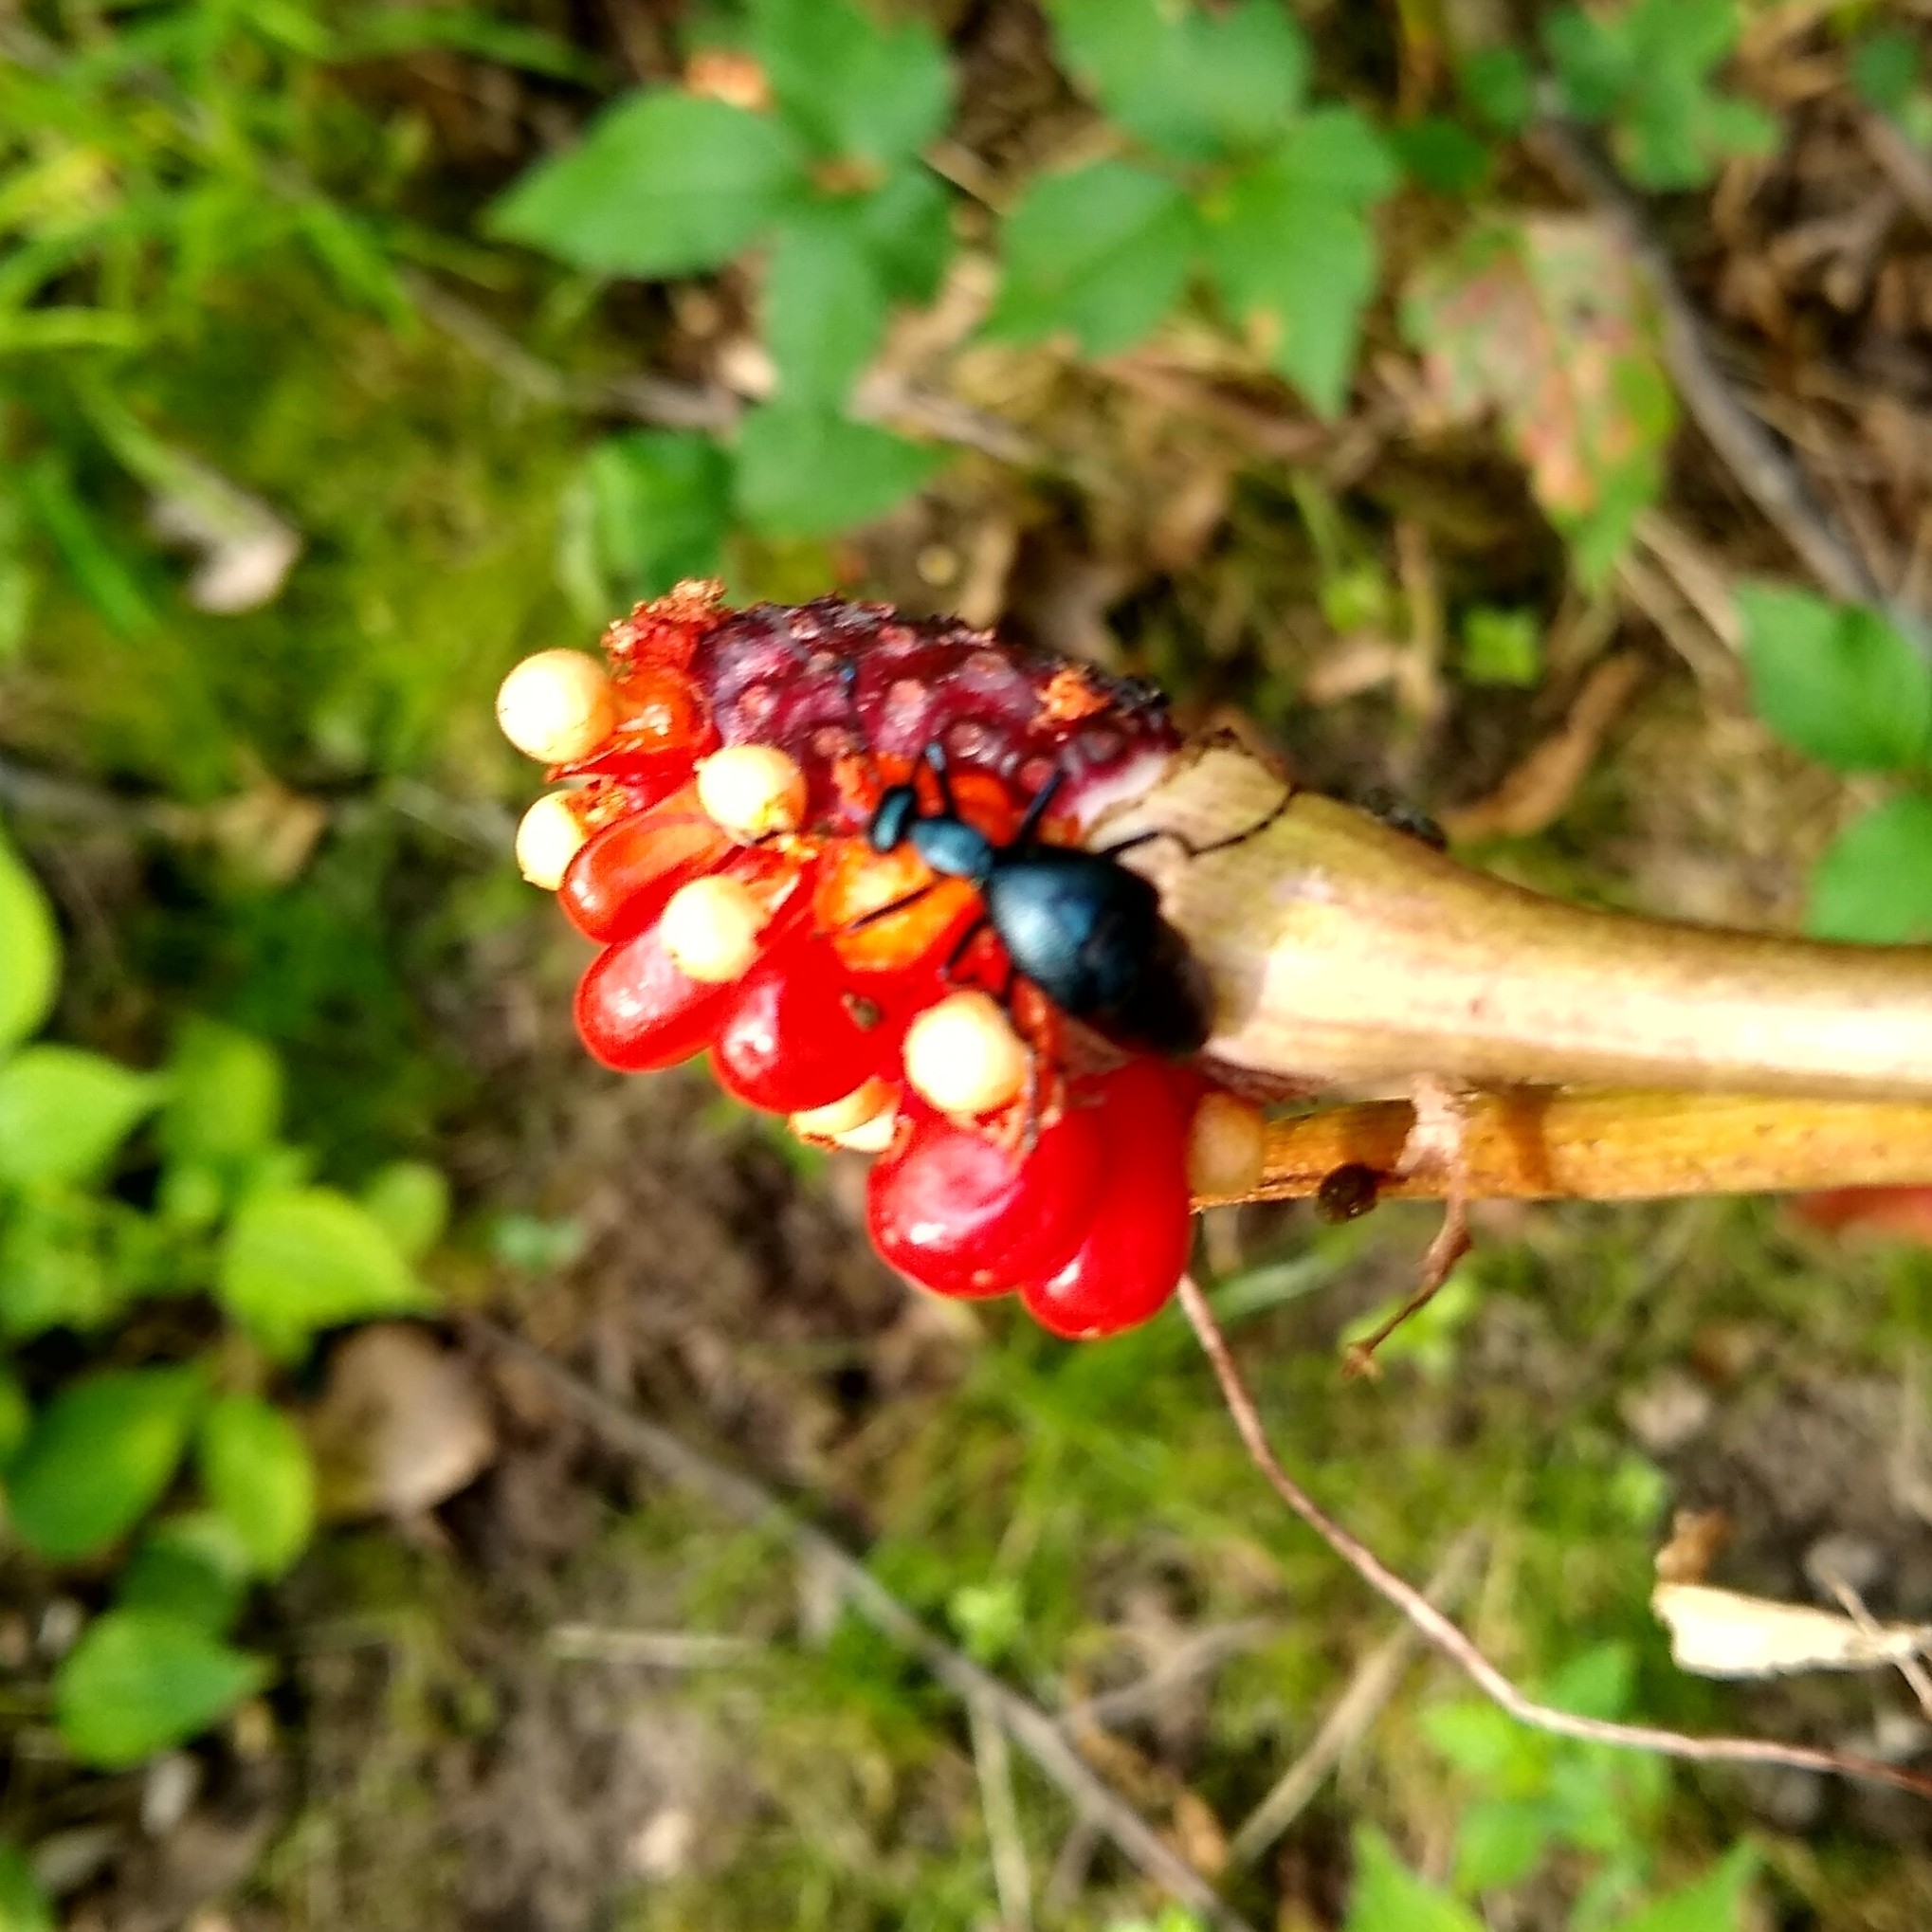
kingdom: Animalia
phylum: Arthropoda
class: Insecta
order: Coleoptera
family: Meloidae
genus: Meloe
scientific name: Meloe impressus
